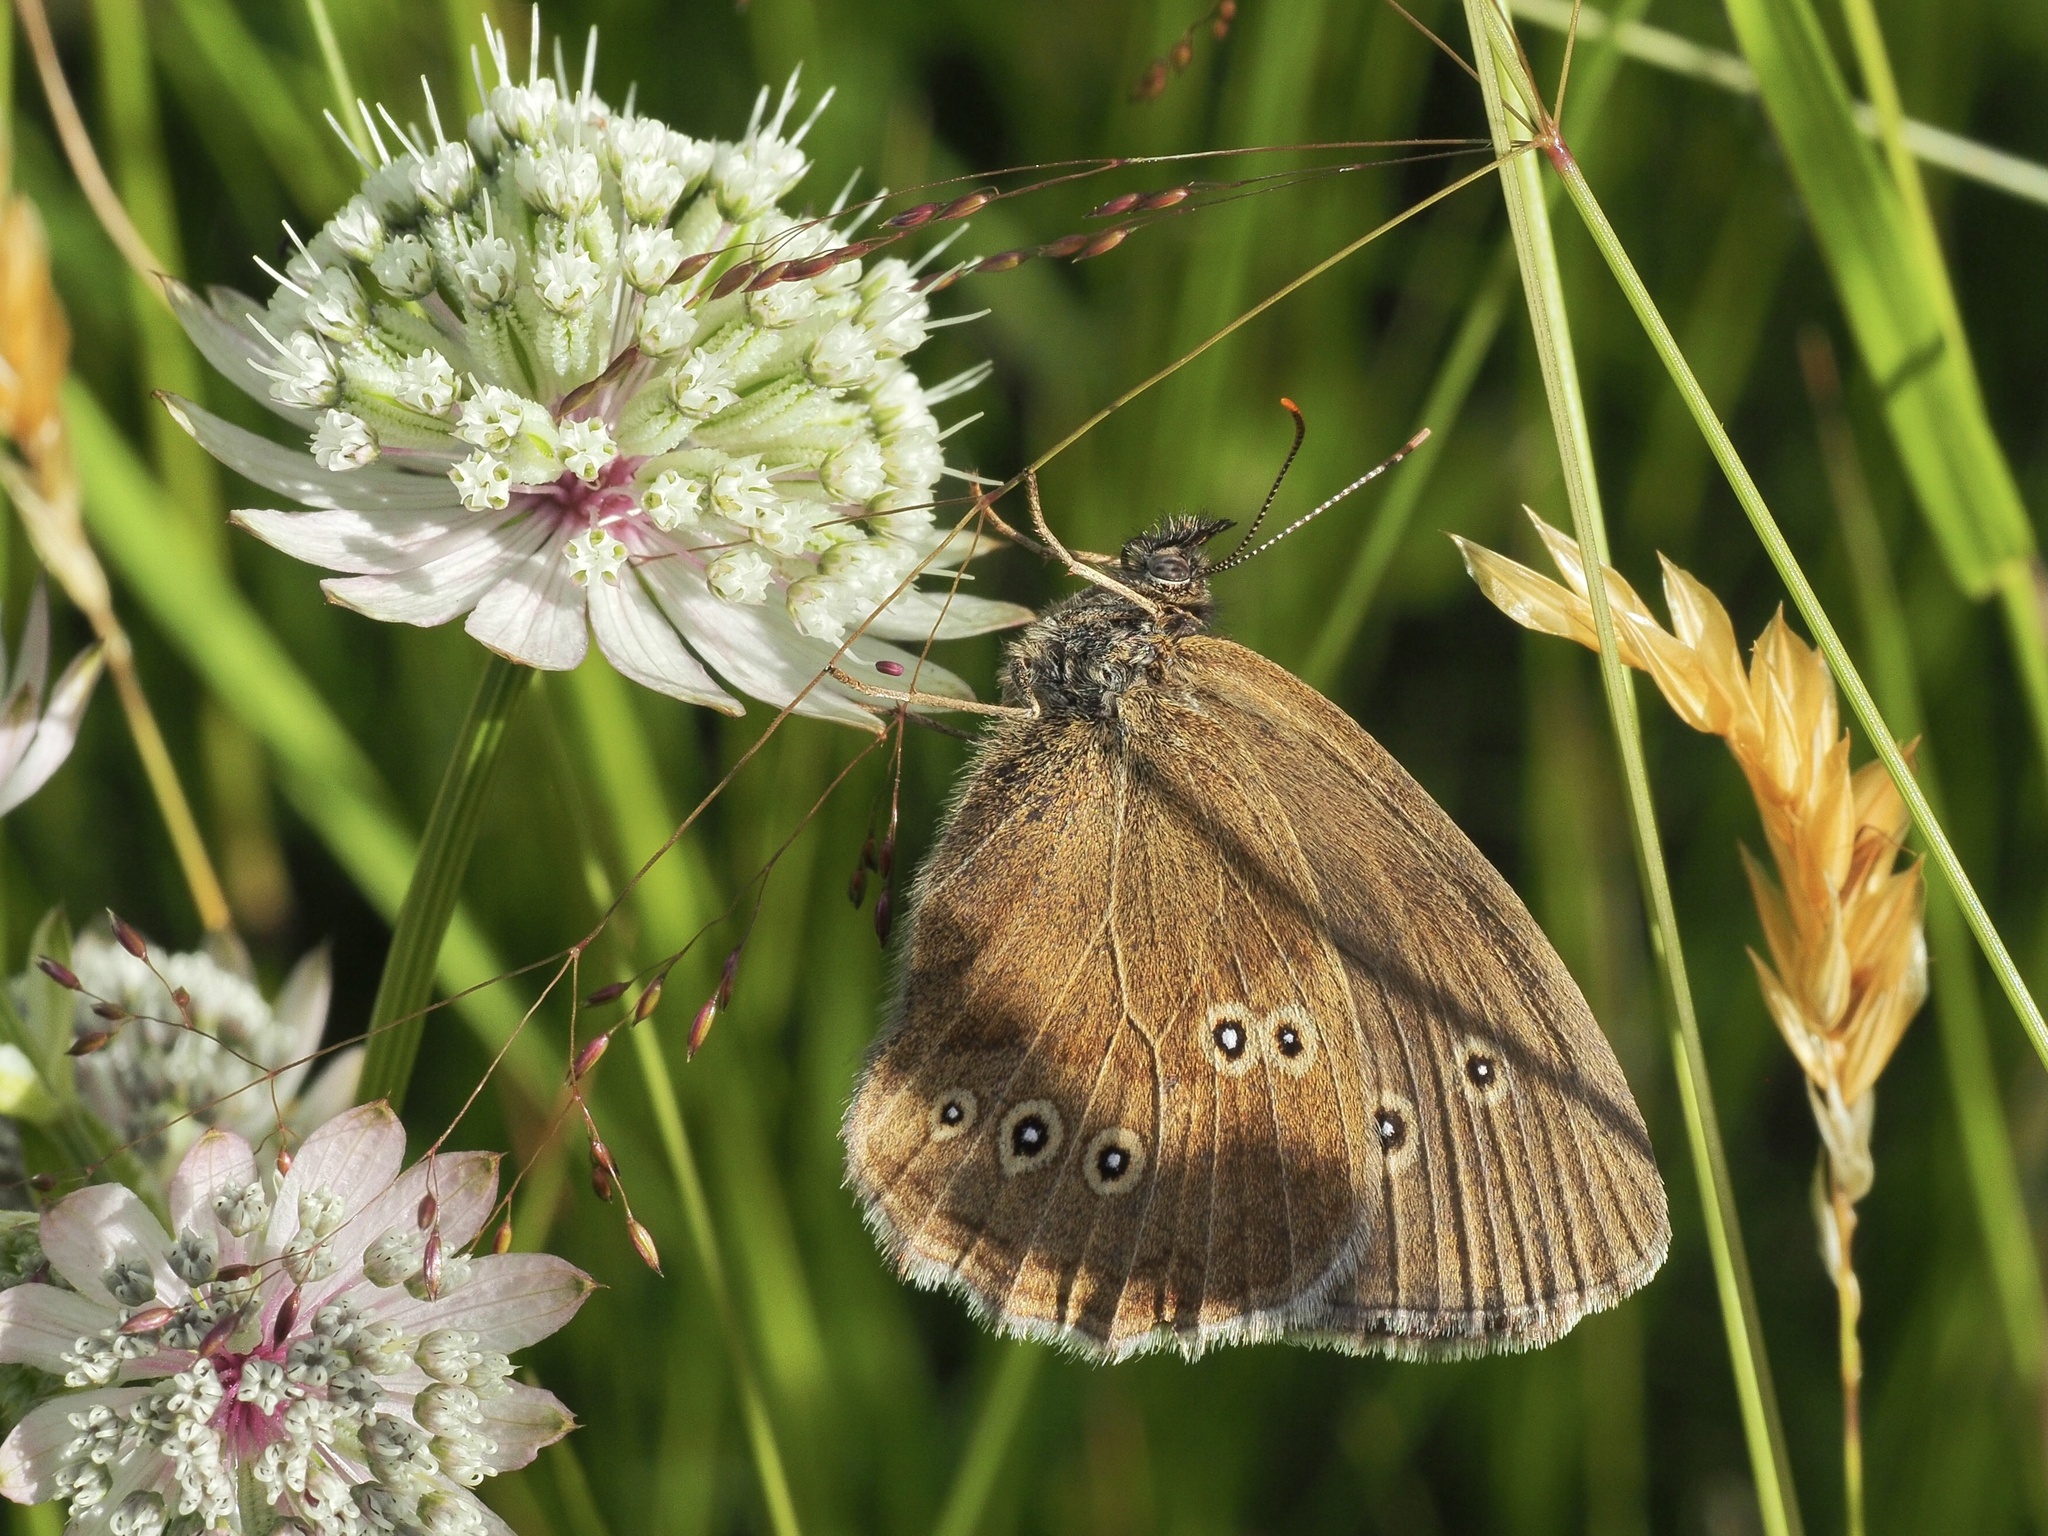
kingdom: Animalia
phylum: Arthropoda
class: Insecta
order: Lepidoptera
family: Nymphalidae
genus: Aphantopus
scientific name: Aphantopus hyperantus
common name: Ringlet
